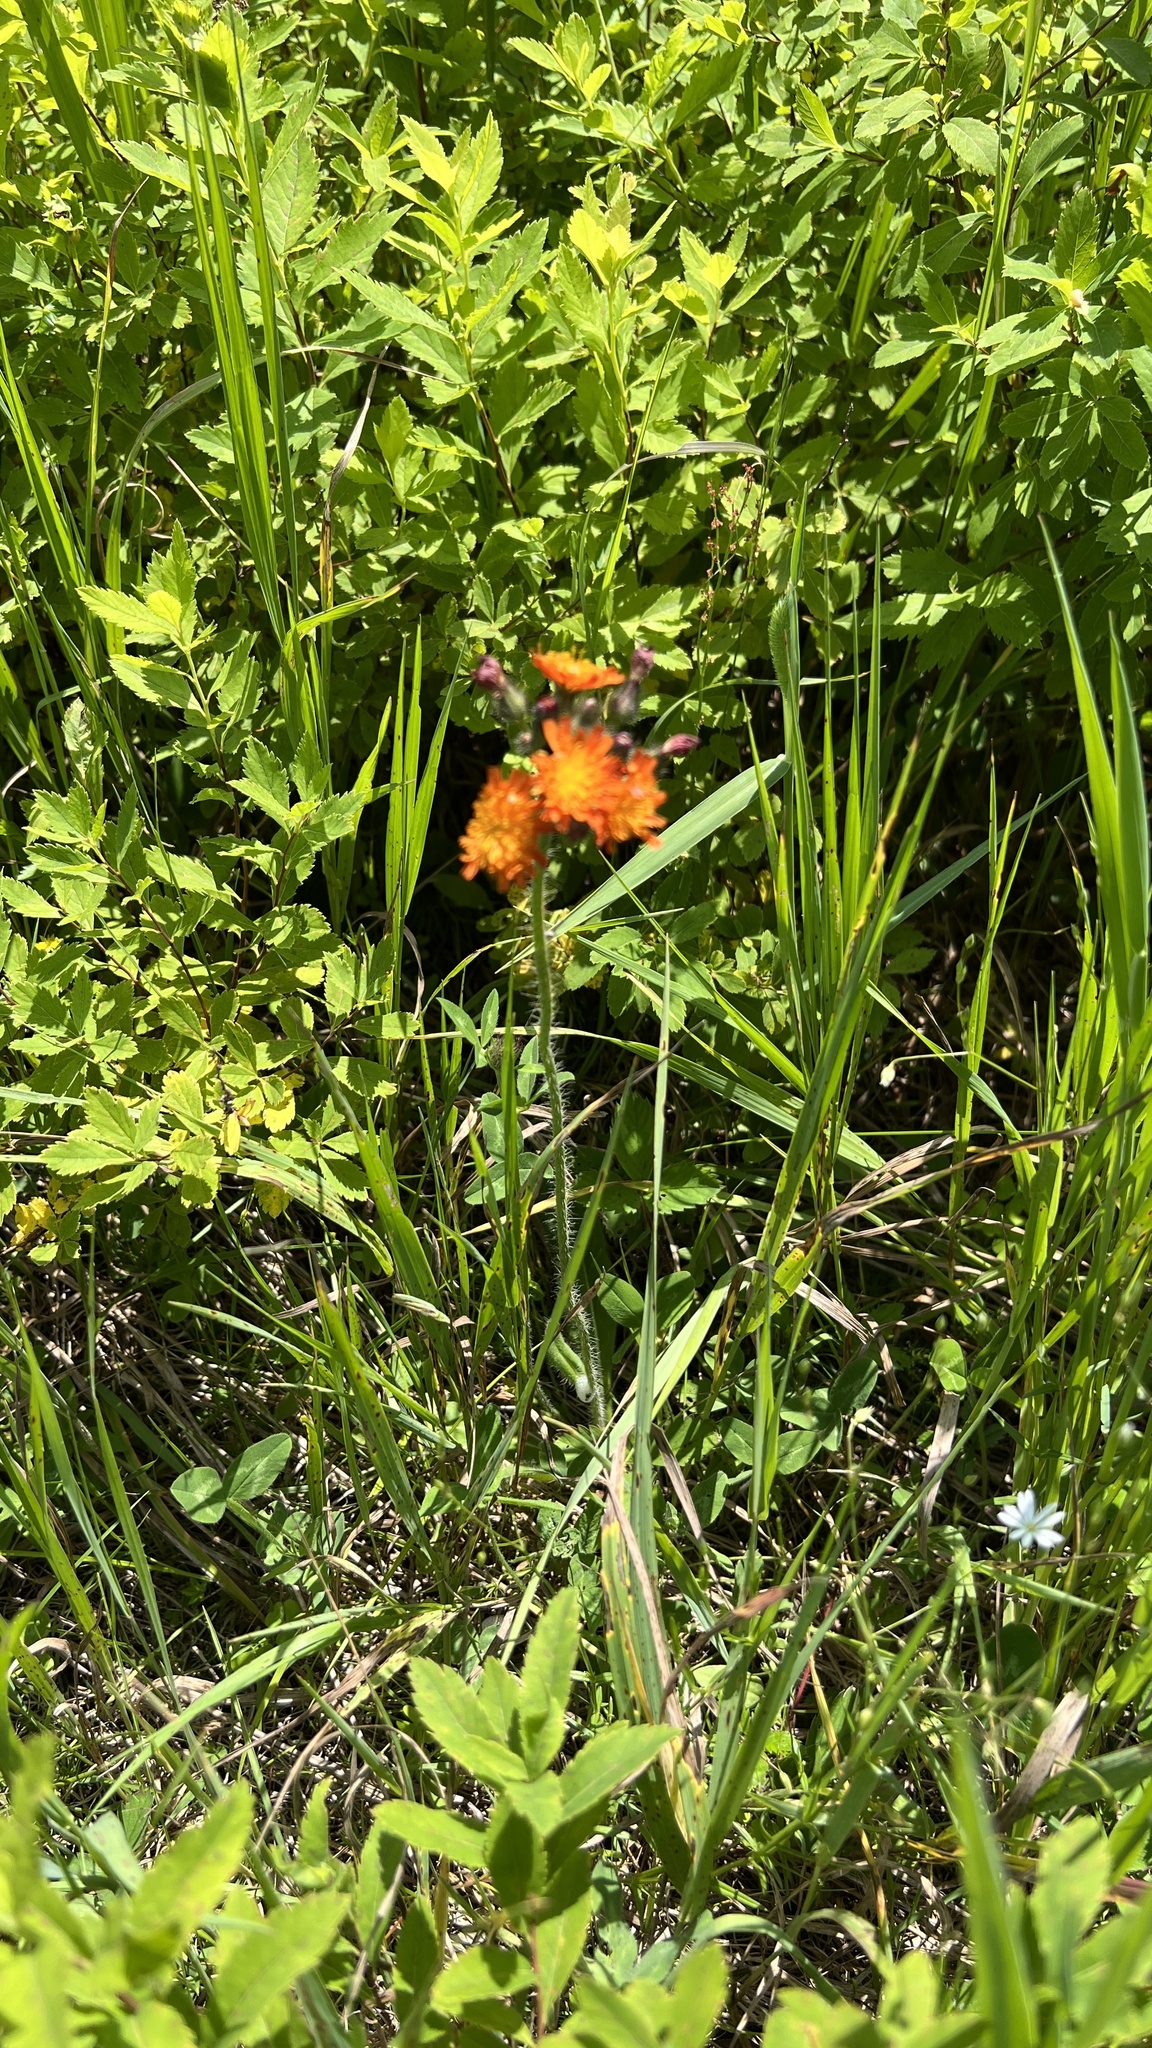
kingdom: Plantae
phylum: Tracheophyta
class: Magnoliopsida
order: Asterales
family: Asteraceae
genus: Pilosella
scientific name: Pilosella aurantiaca
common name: Fox-and-cubs
